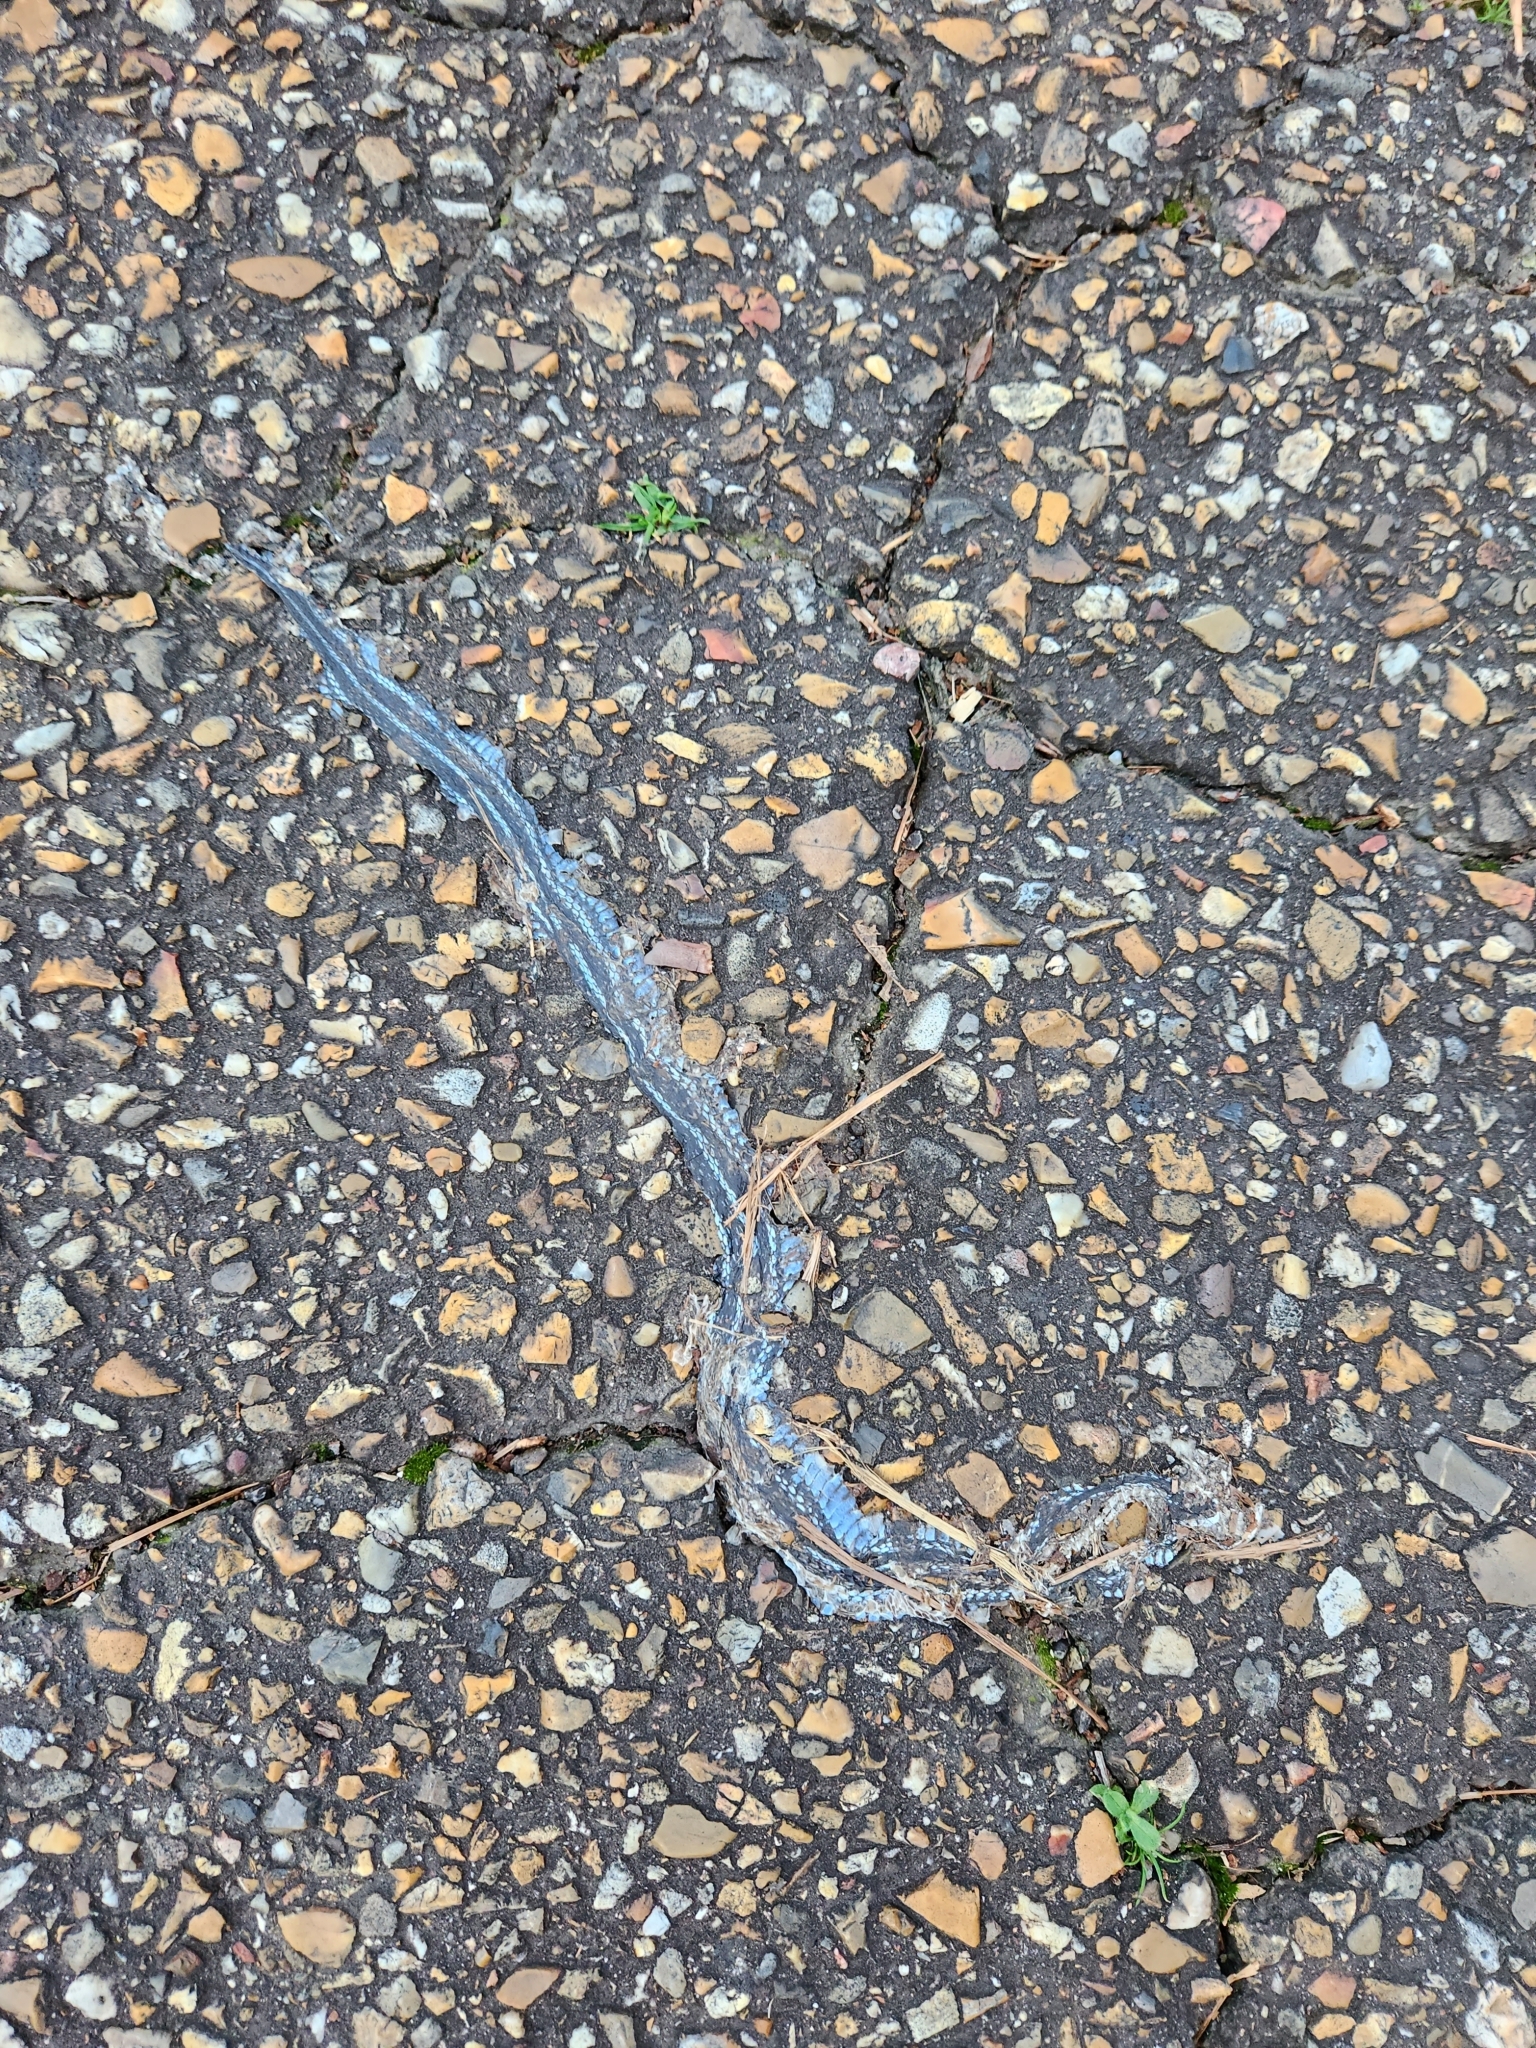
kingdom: Animalia
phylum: Chordata
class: Squamata
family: Colubridae
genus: Thamnophis
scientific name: Thamnophis proximus
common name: Western ribbon snake
